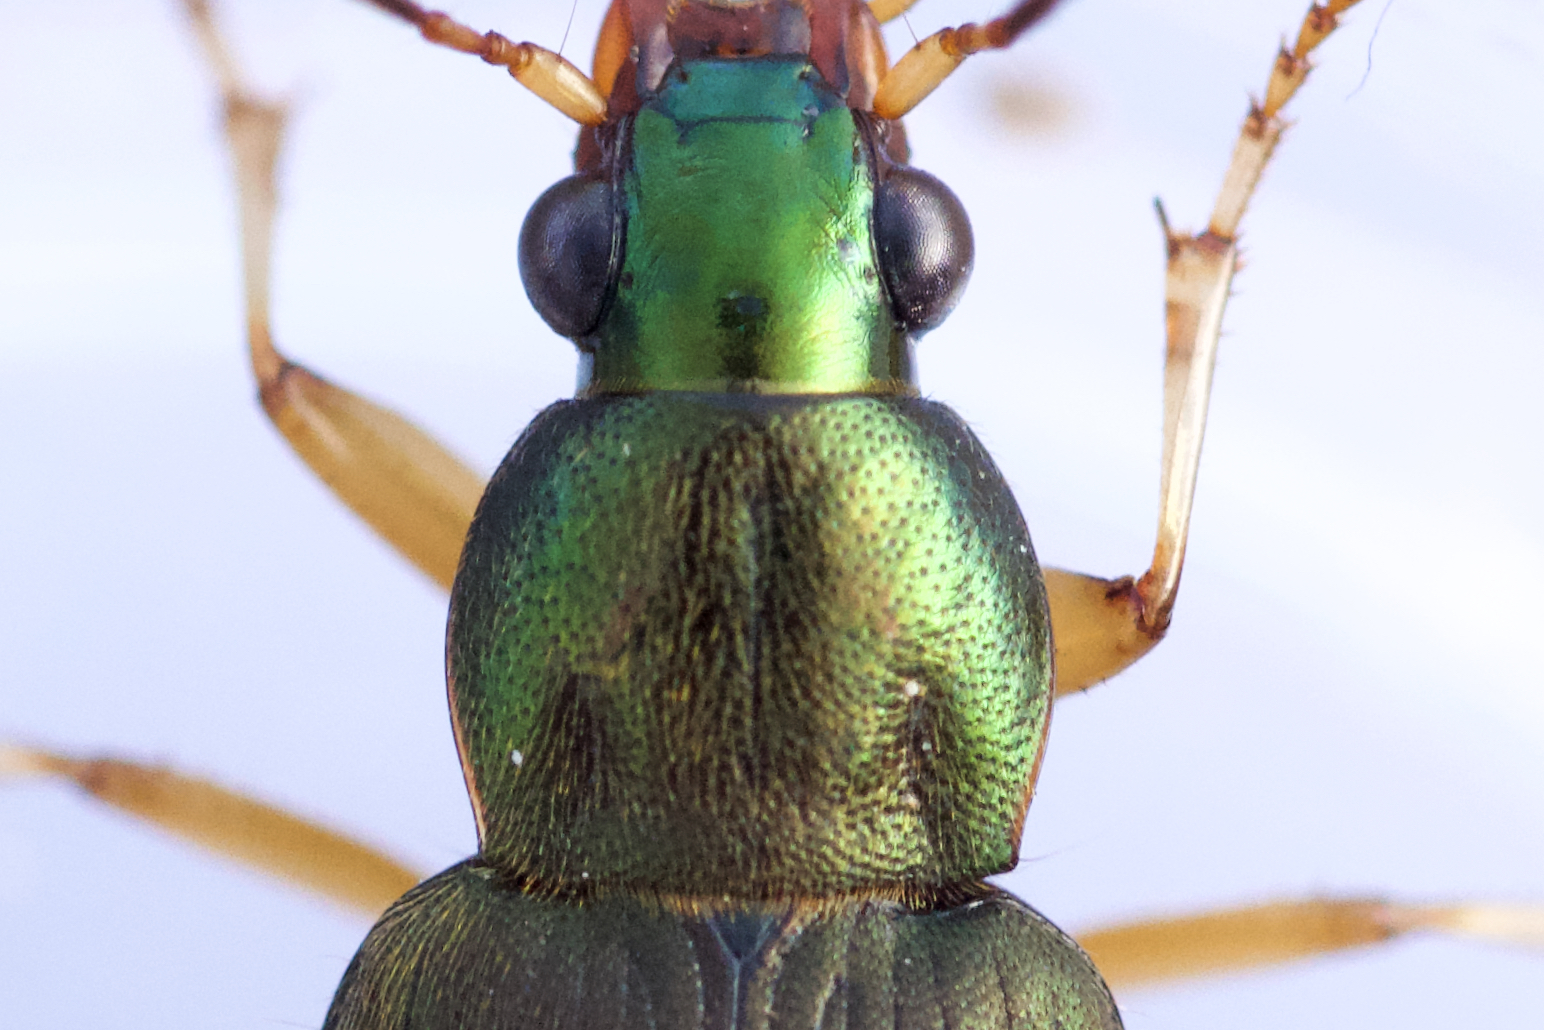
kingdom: Animalia
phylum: Arthropoda
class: Insecta
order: Coleoptera
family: Carabidae
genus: Chlaenius
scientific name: Chlaenius pennsylvanicus
